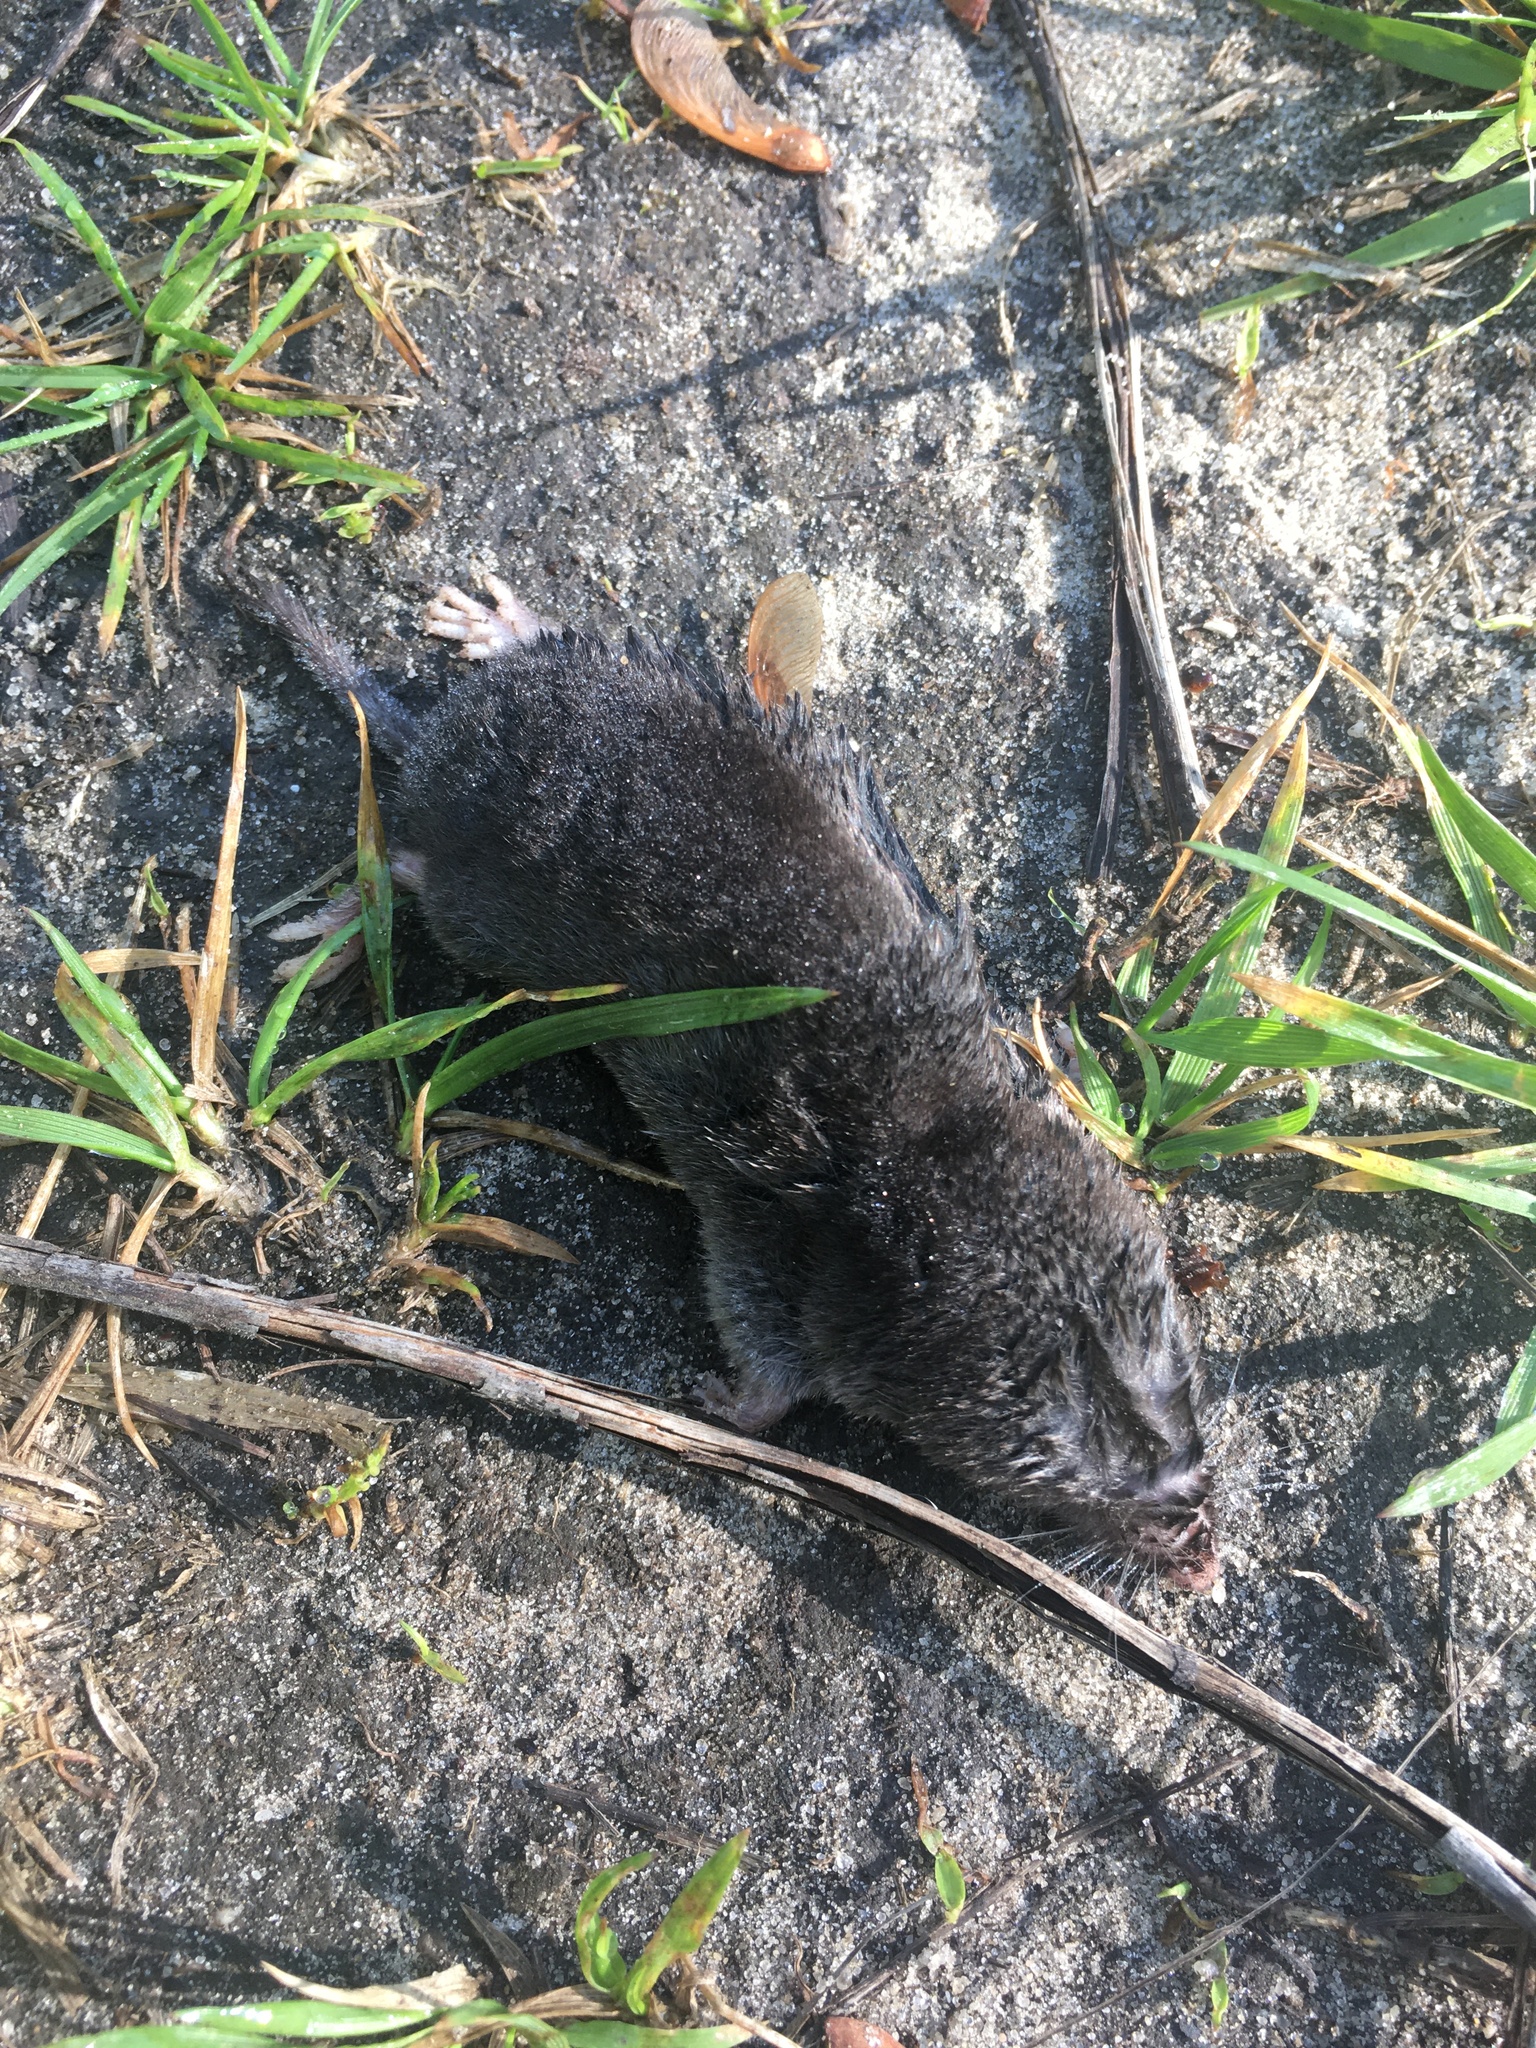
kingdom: Animalia
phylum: Chordata
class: Mammalia
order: Soricomorpha
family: Soricidae
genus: Blarina
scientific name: Blarina brevicauda
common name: Northern short-tailed shrew
